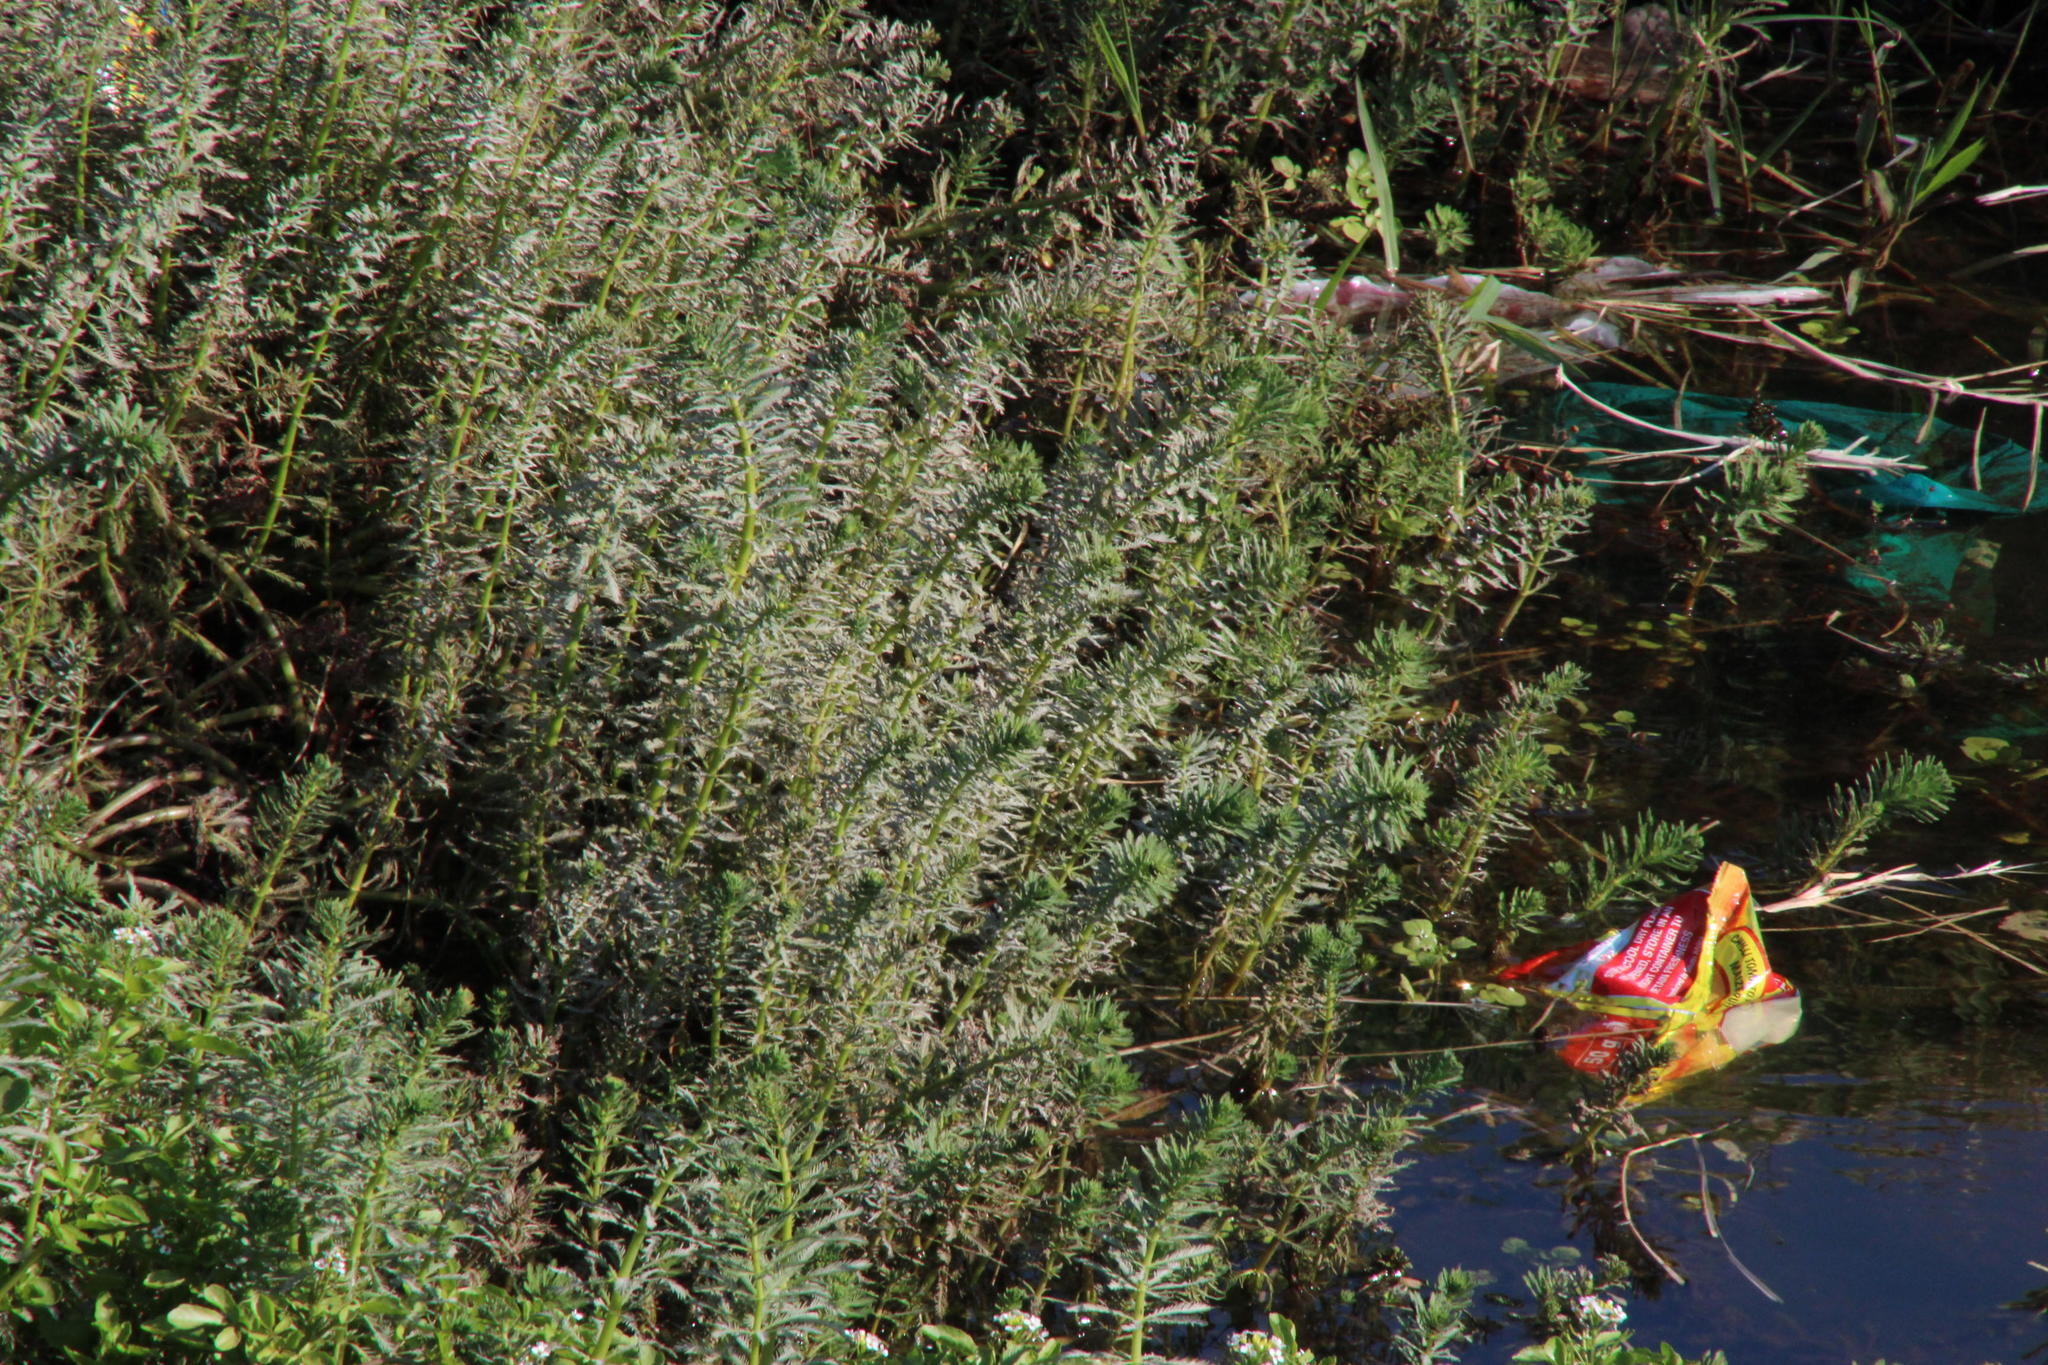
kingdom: Plantae
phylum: Tracheophyta
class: Magnoliopsida
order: Saxifragales
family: Haloragaceae
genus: Myriophyllum
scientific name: Myriophyllum aquaticum
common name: Parrot's feather
